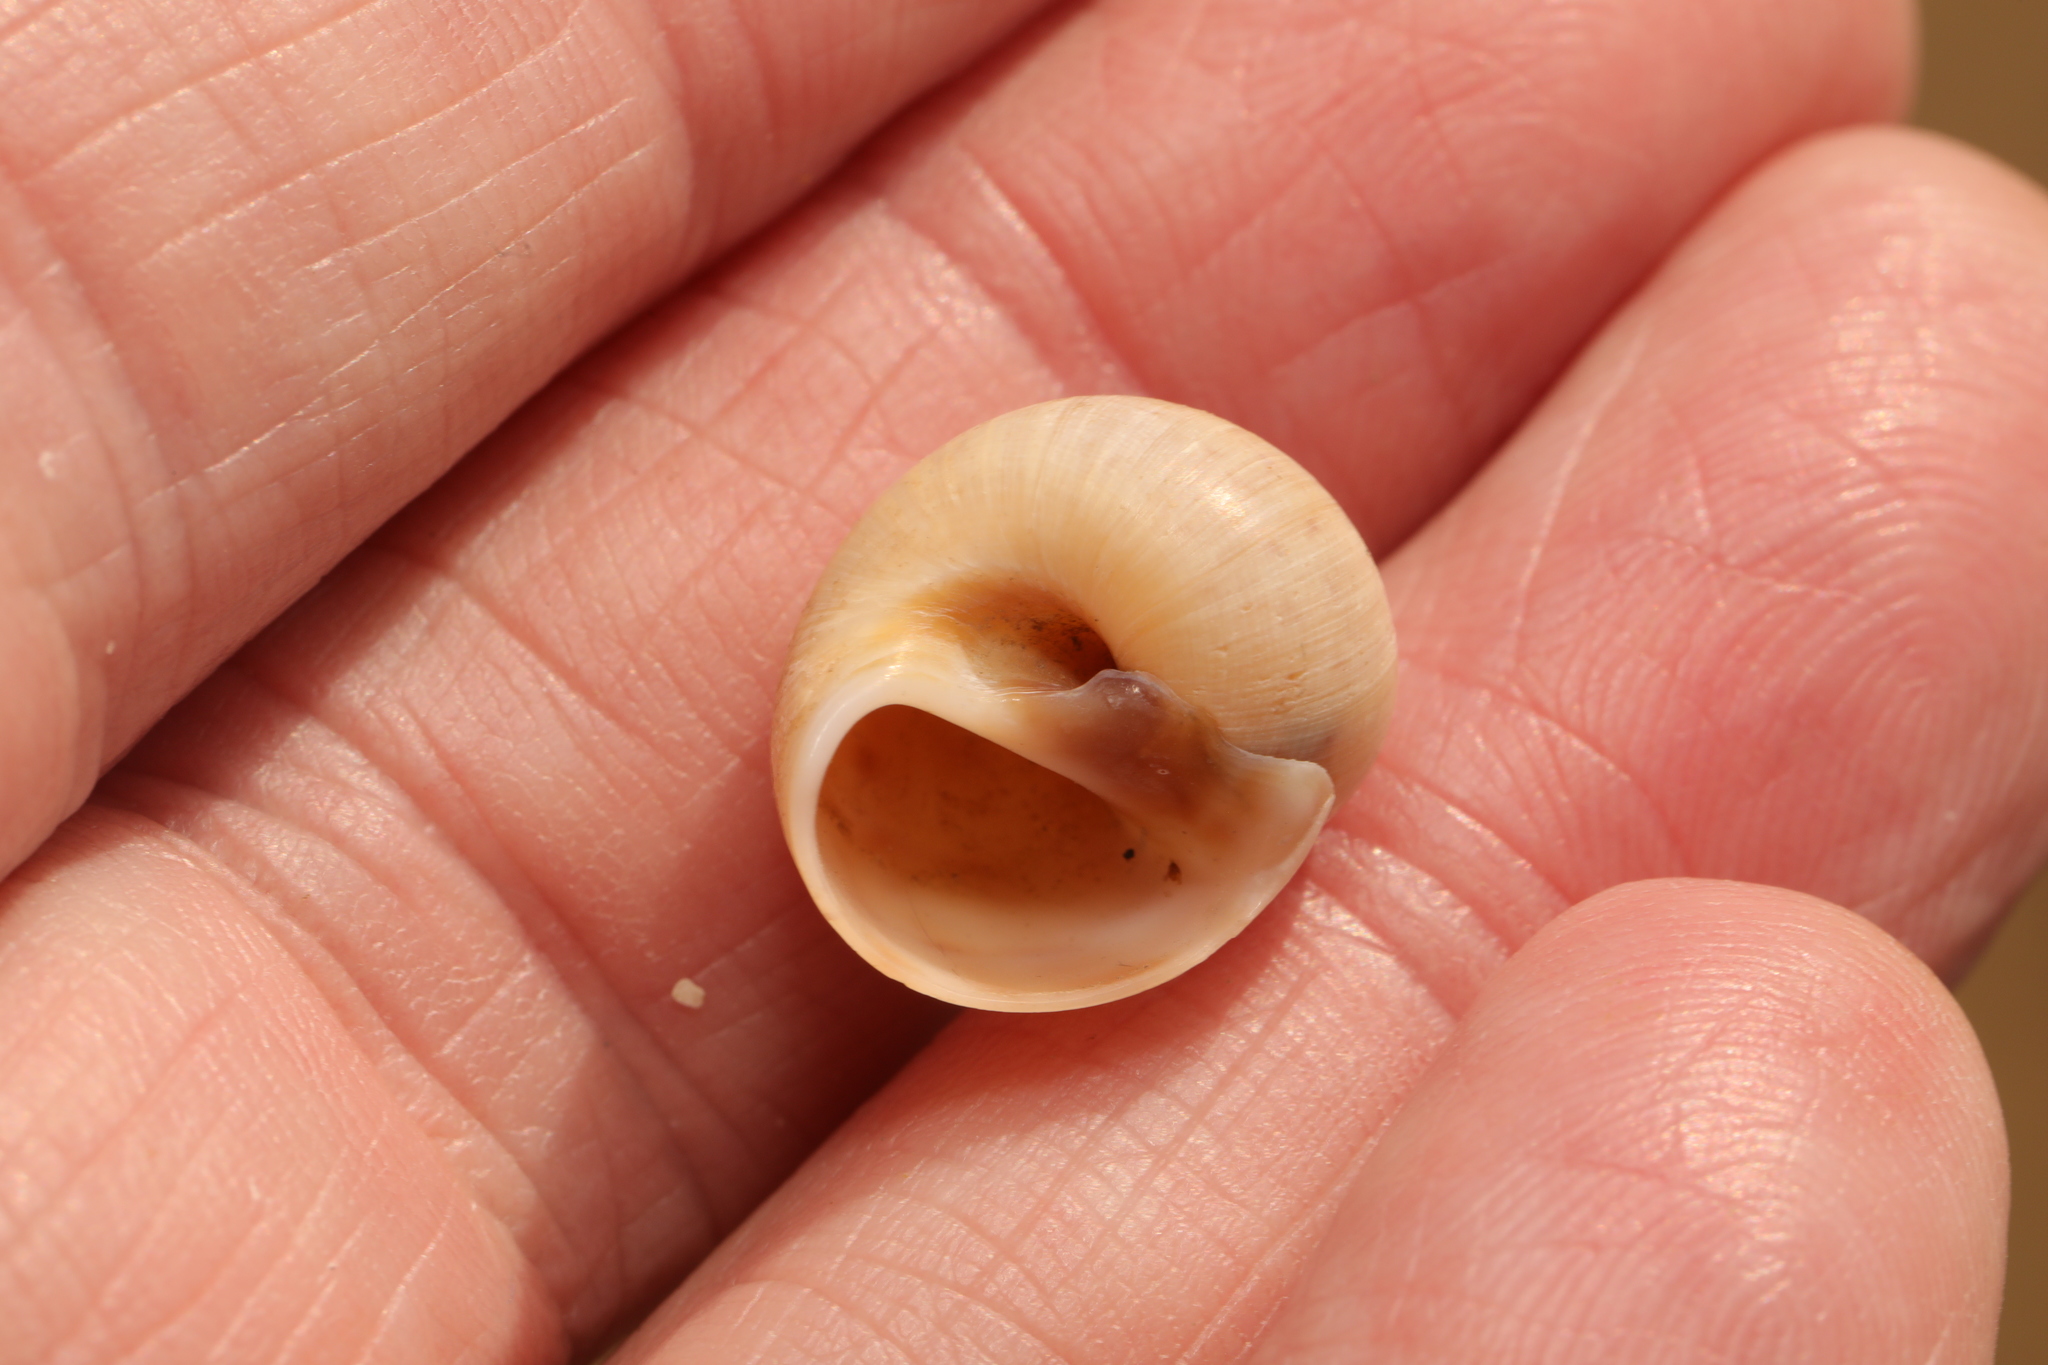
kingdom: Animalia
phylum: Mollusca
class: Gastropoda
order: Littorinimorpha
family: Naticidae
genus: Euspira
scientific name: Euspira catena
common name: Necklace shell
